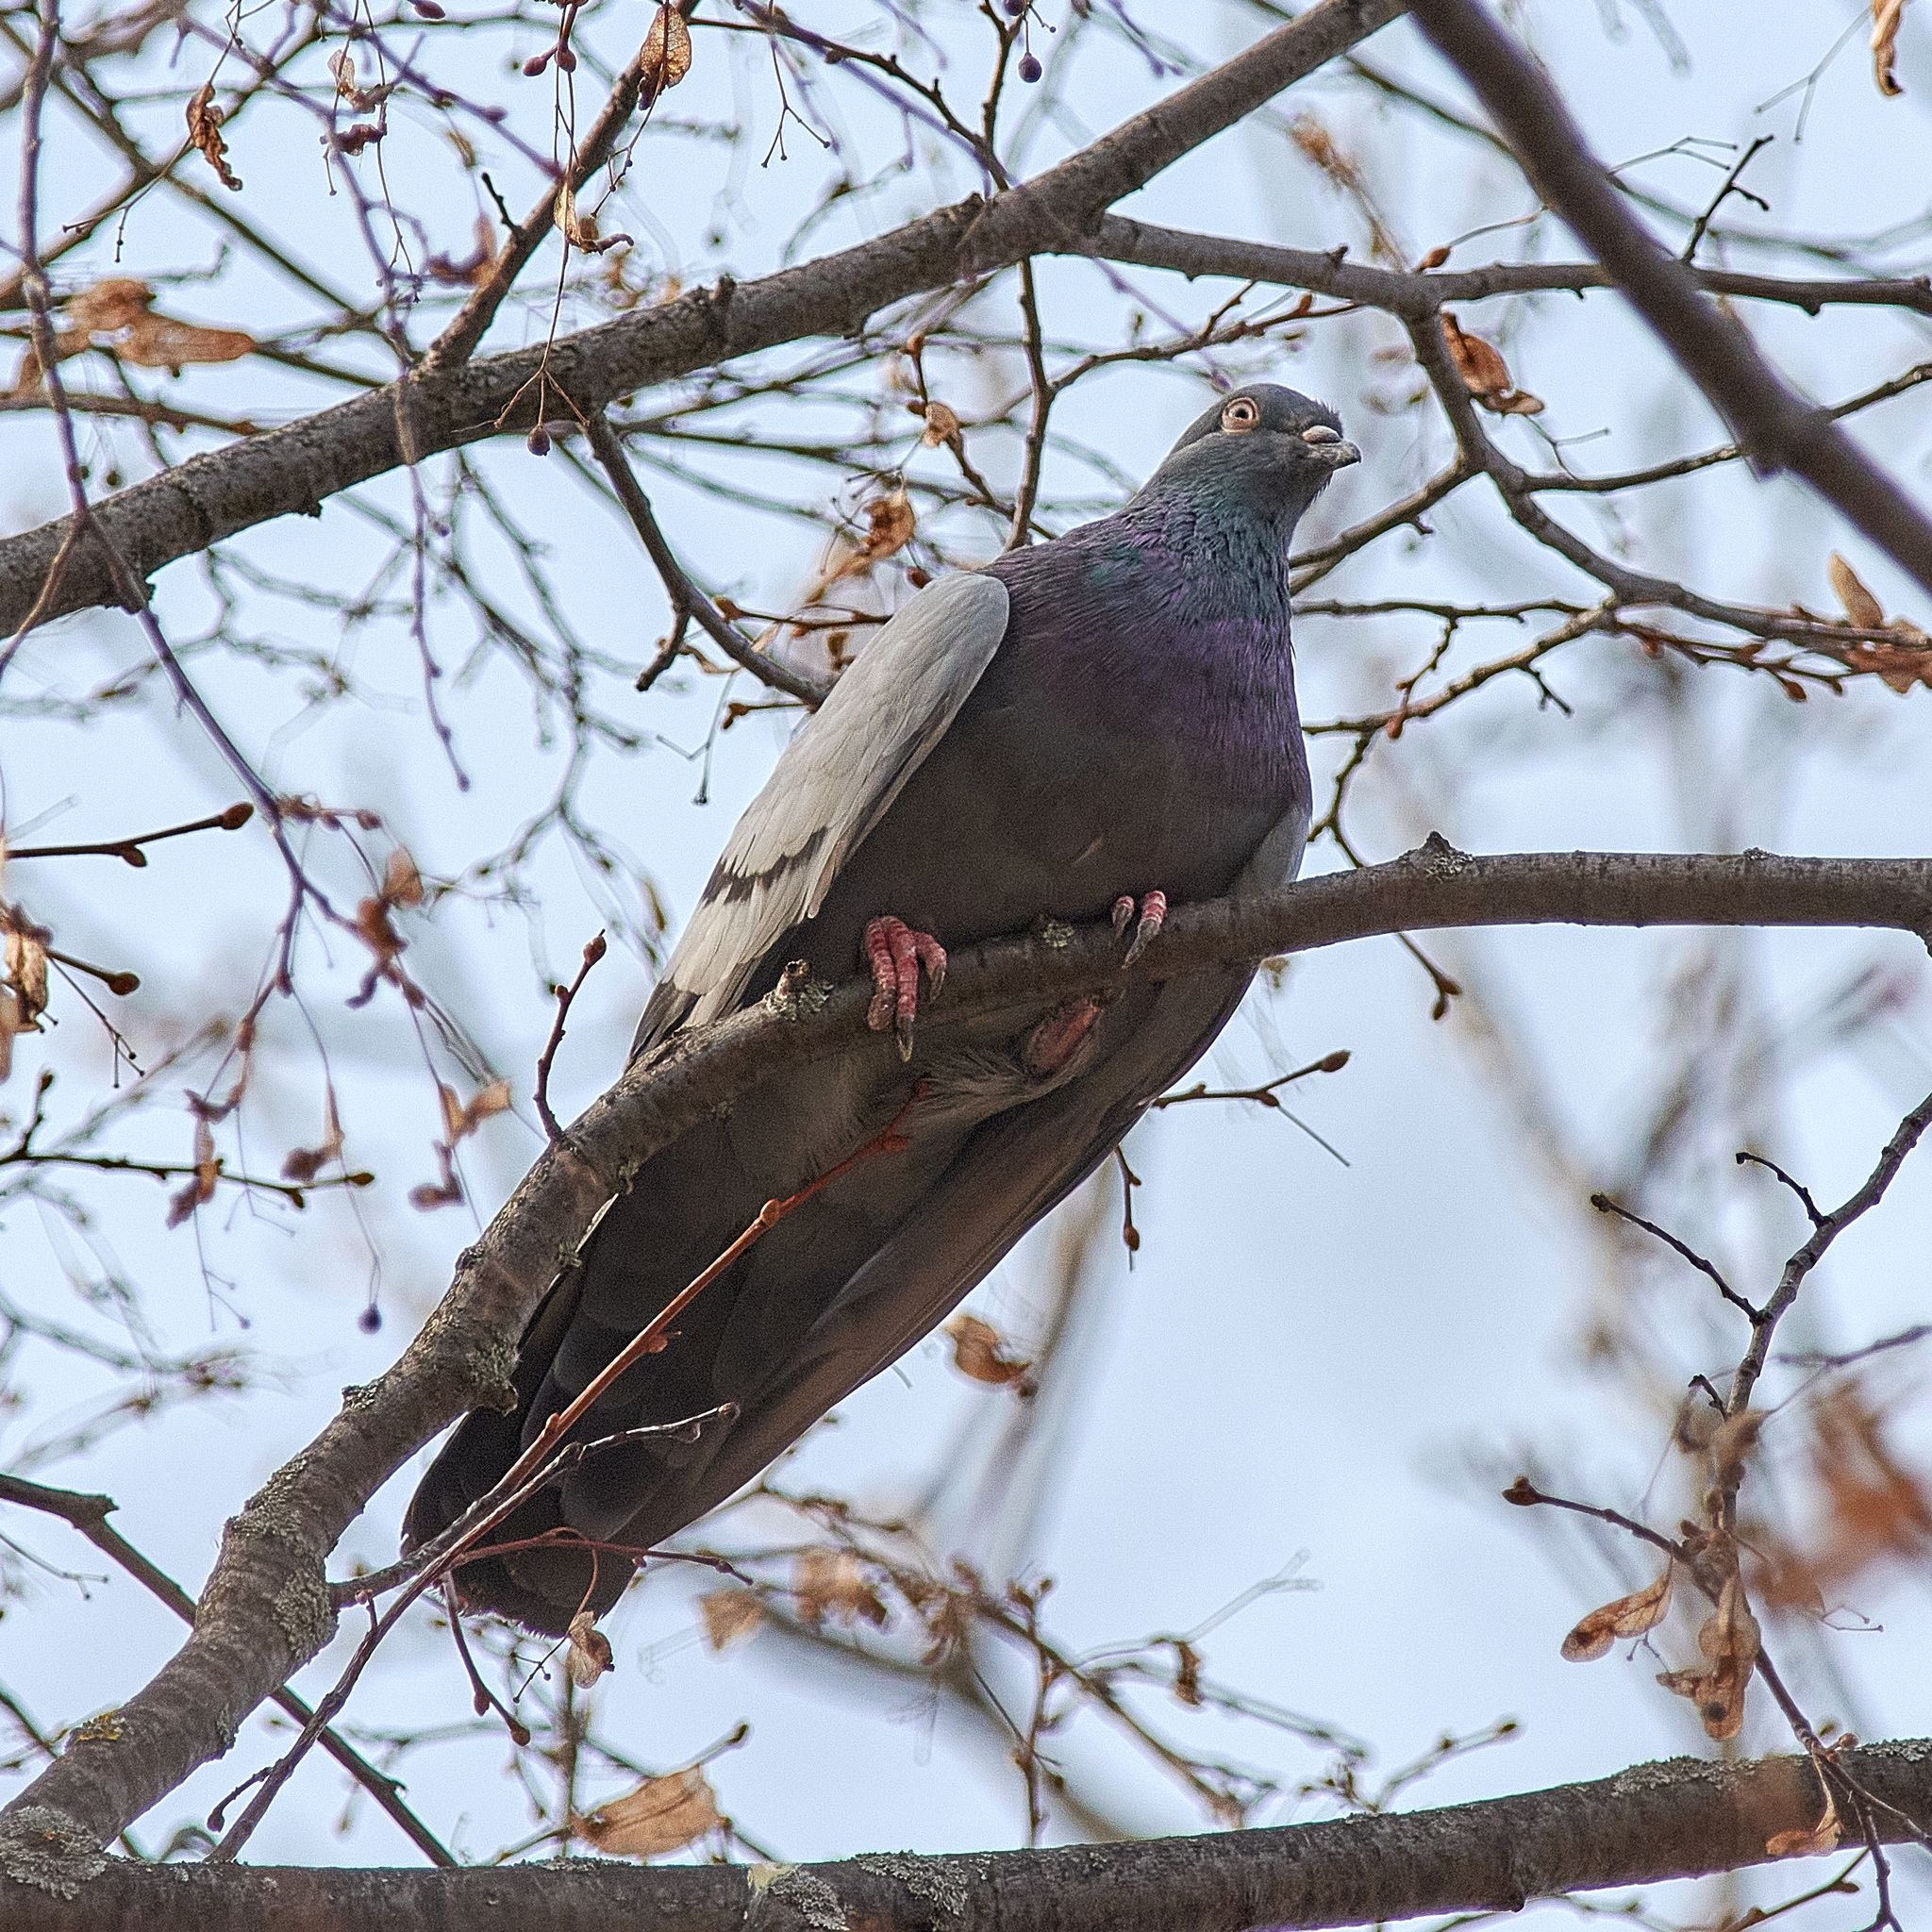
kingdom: Animalia
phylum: Chordata
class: Aves
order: Columbiformes
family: Columbidae
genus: Columba
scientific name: Columba livia
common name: Rock pigeon
